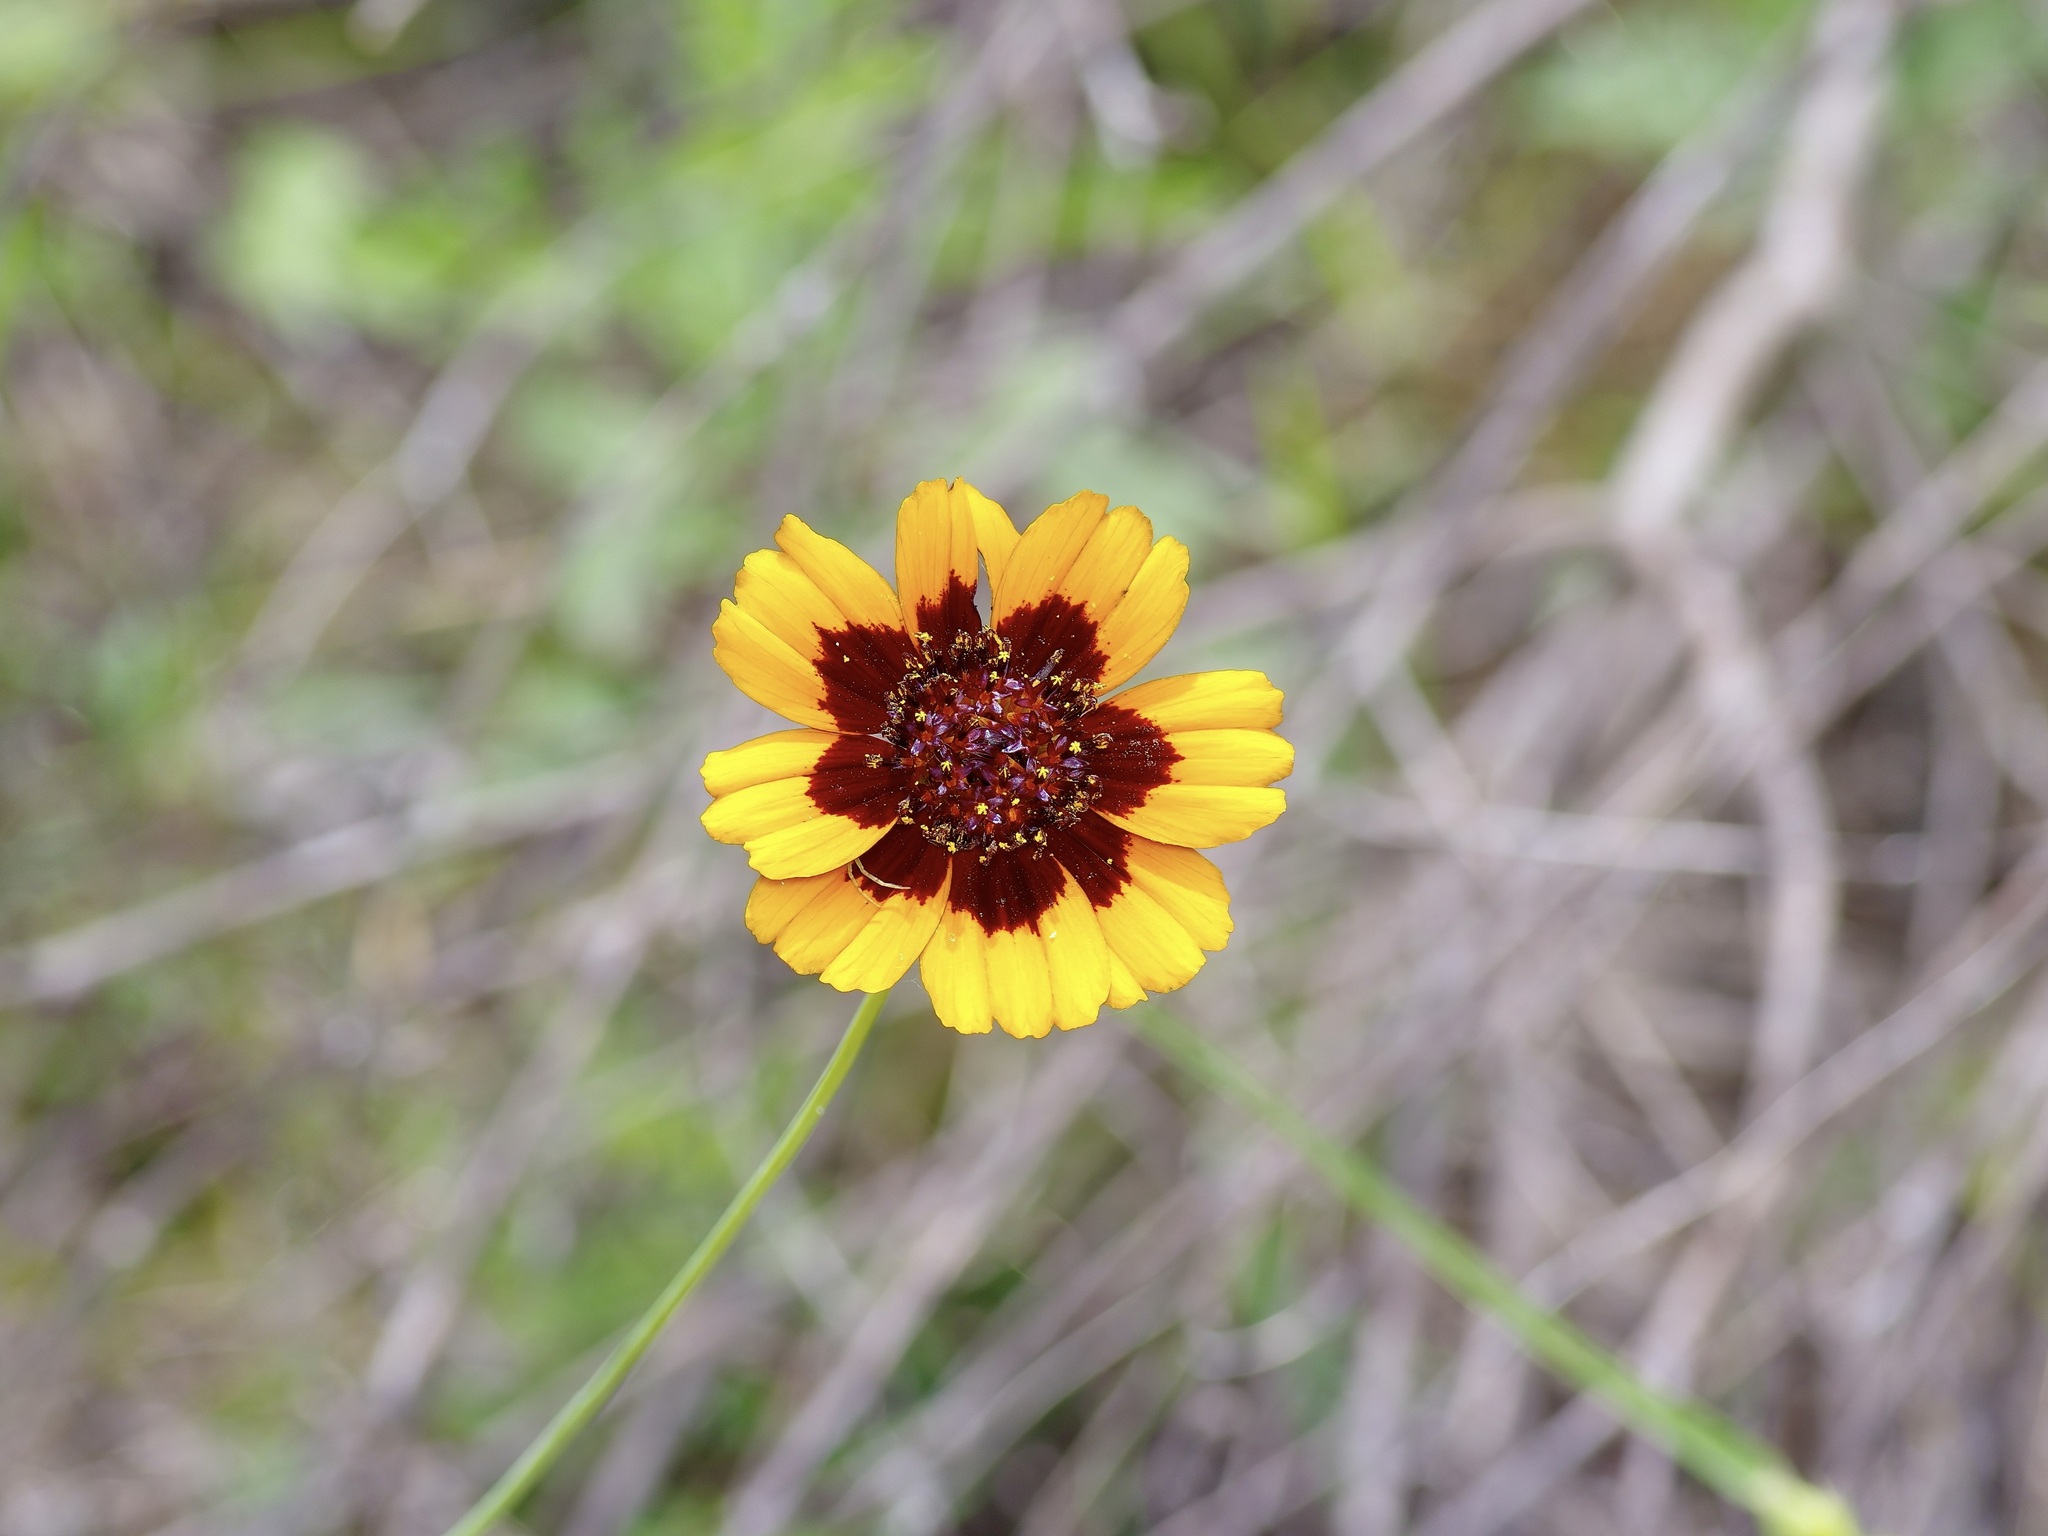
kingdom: Plantae
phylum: Tracheophyta
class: Magnoliopsida
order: Asterales
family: Asteraceae
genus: Coreopsis
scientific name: Coreopsis basalis
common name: Golden-mane coreopsis
